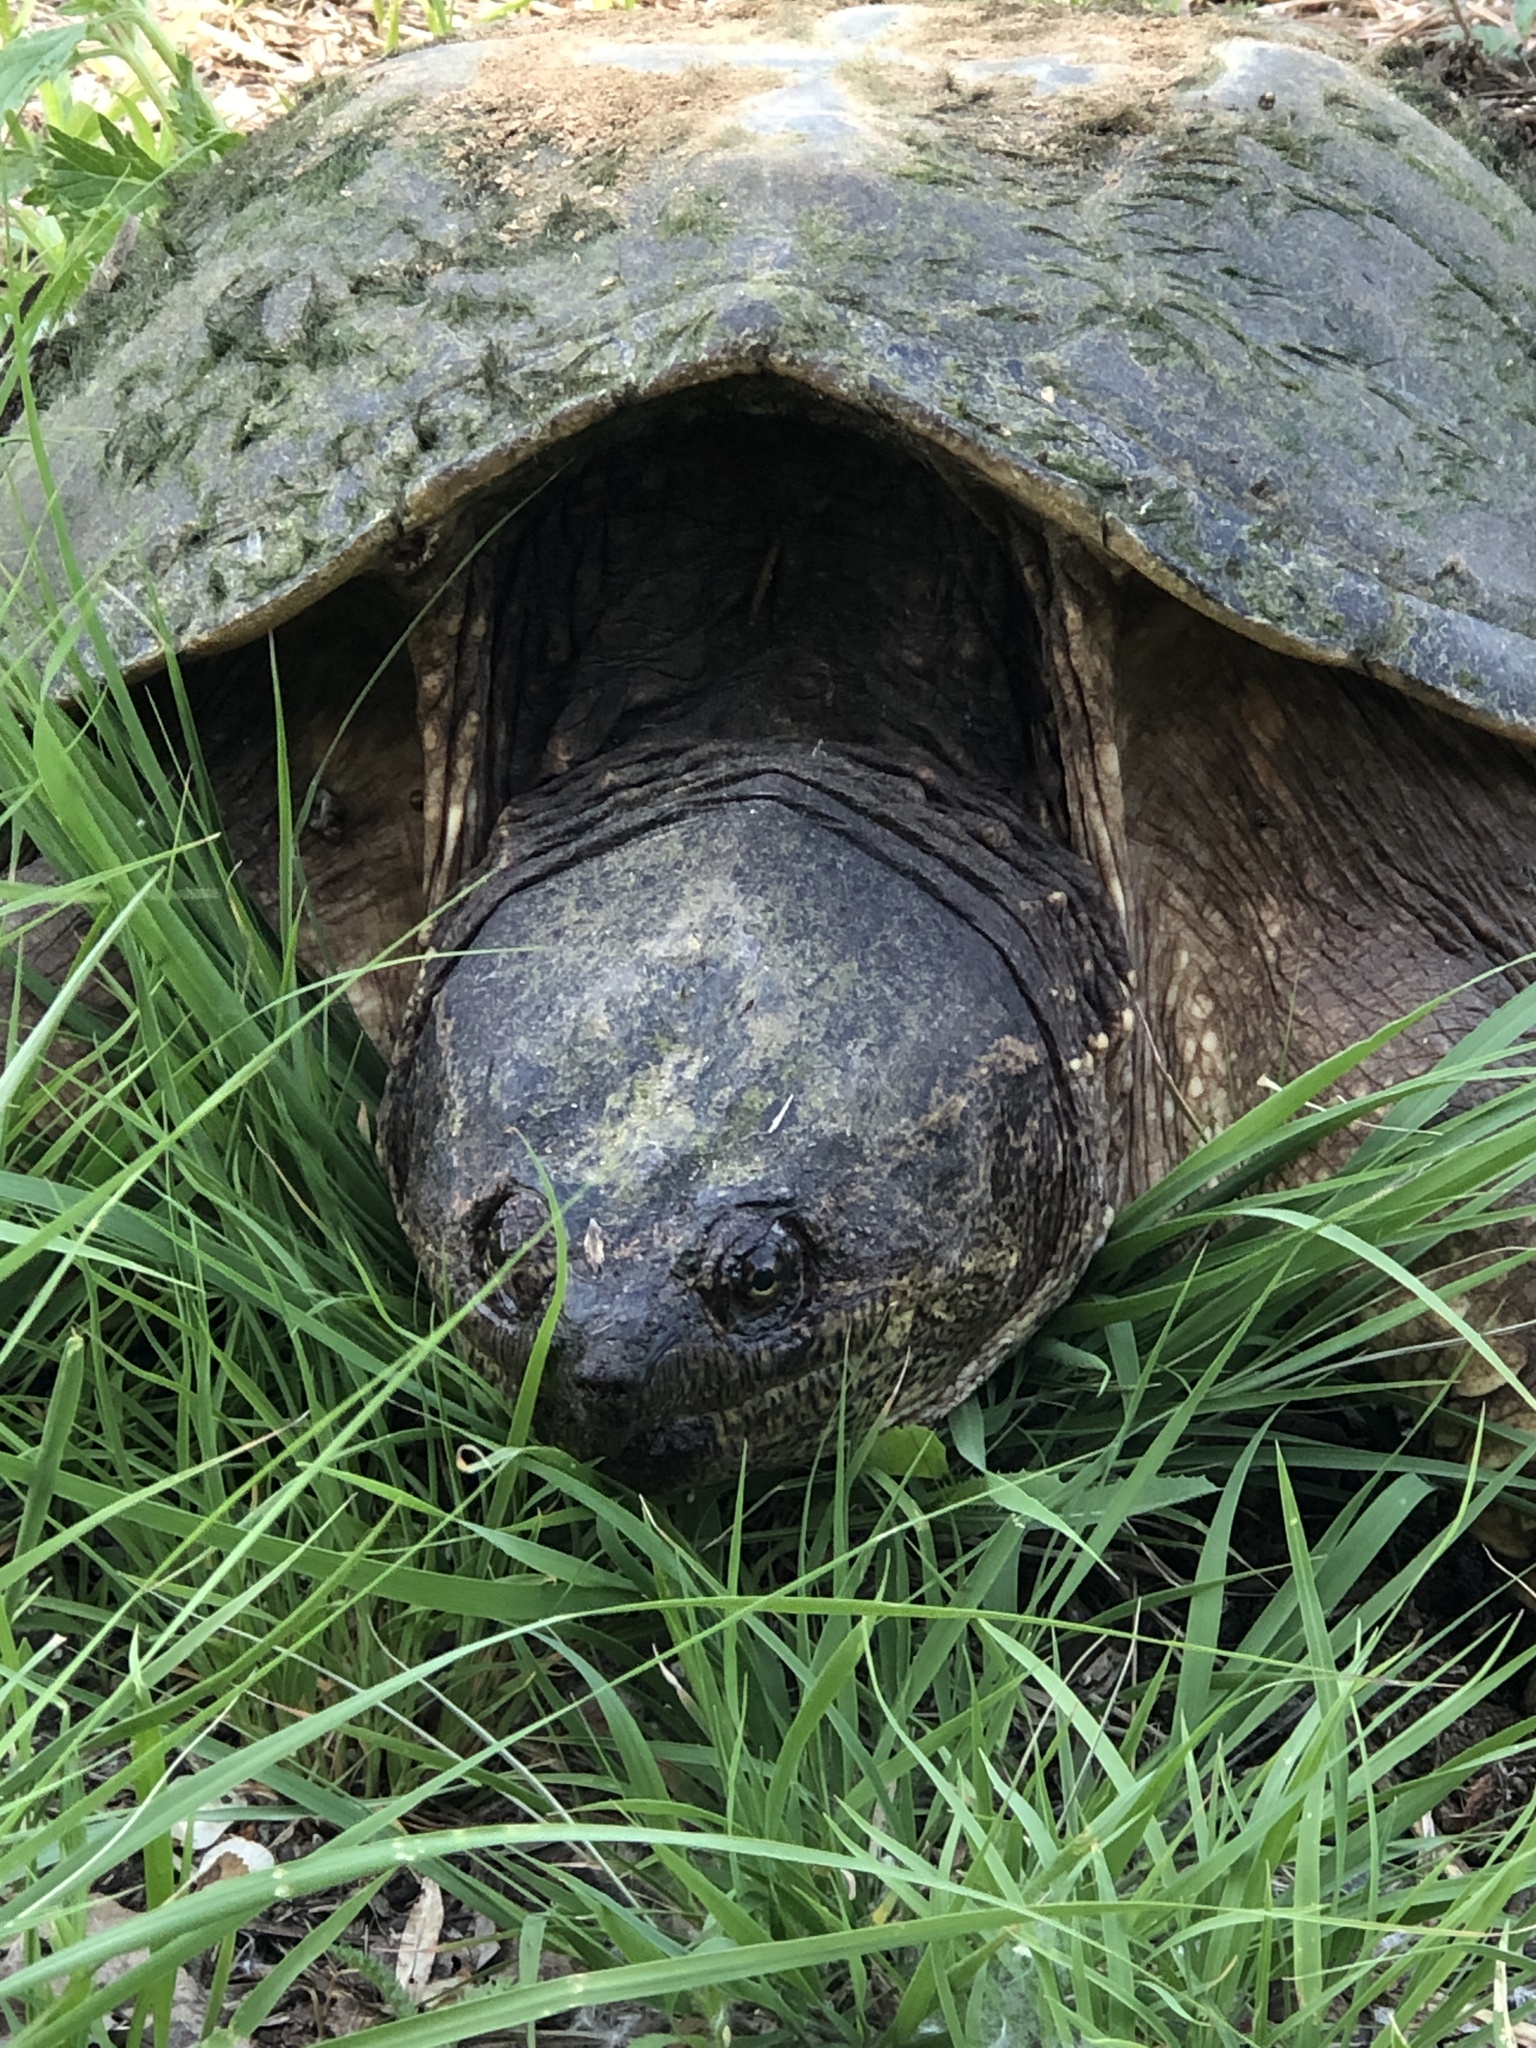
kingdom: Animalia
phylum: Chordata
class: Testudines
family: Chelydridae
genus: Chelydra
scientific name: Chelydra serpentina
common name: Common snapping turtle
